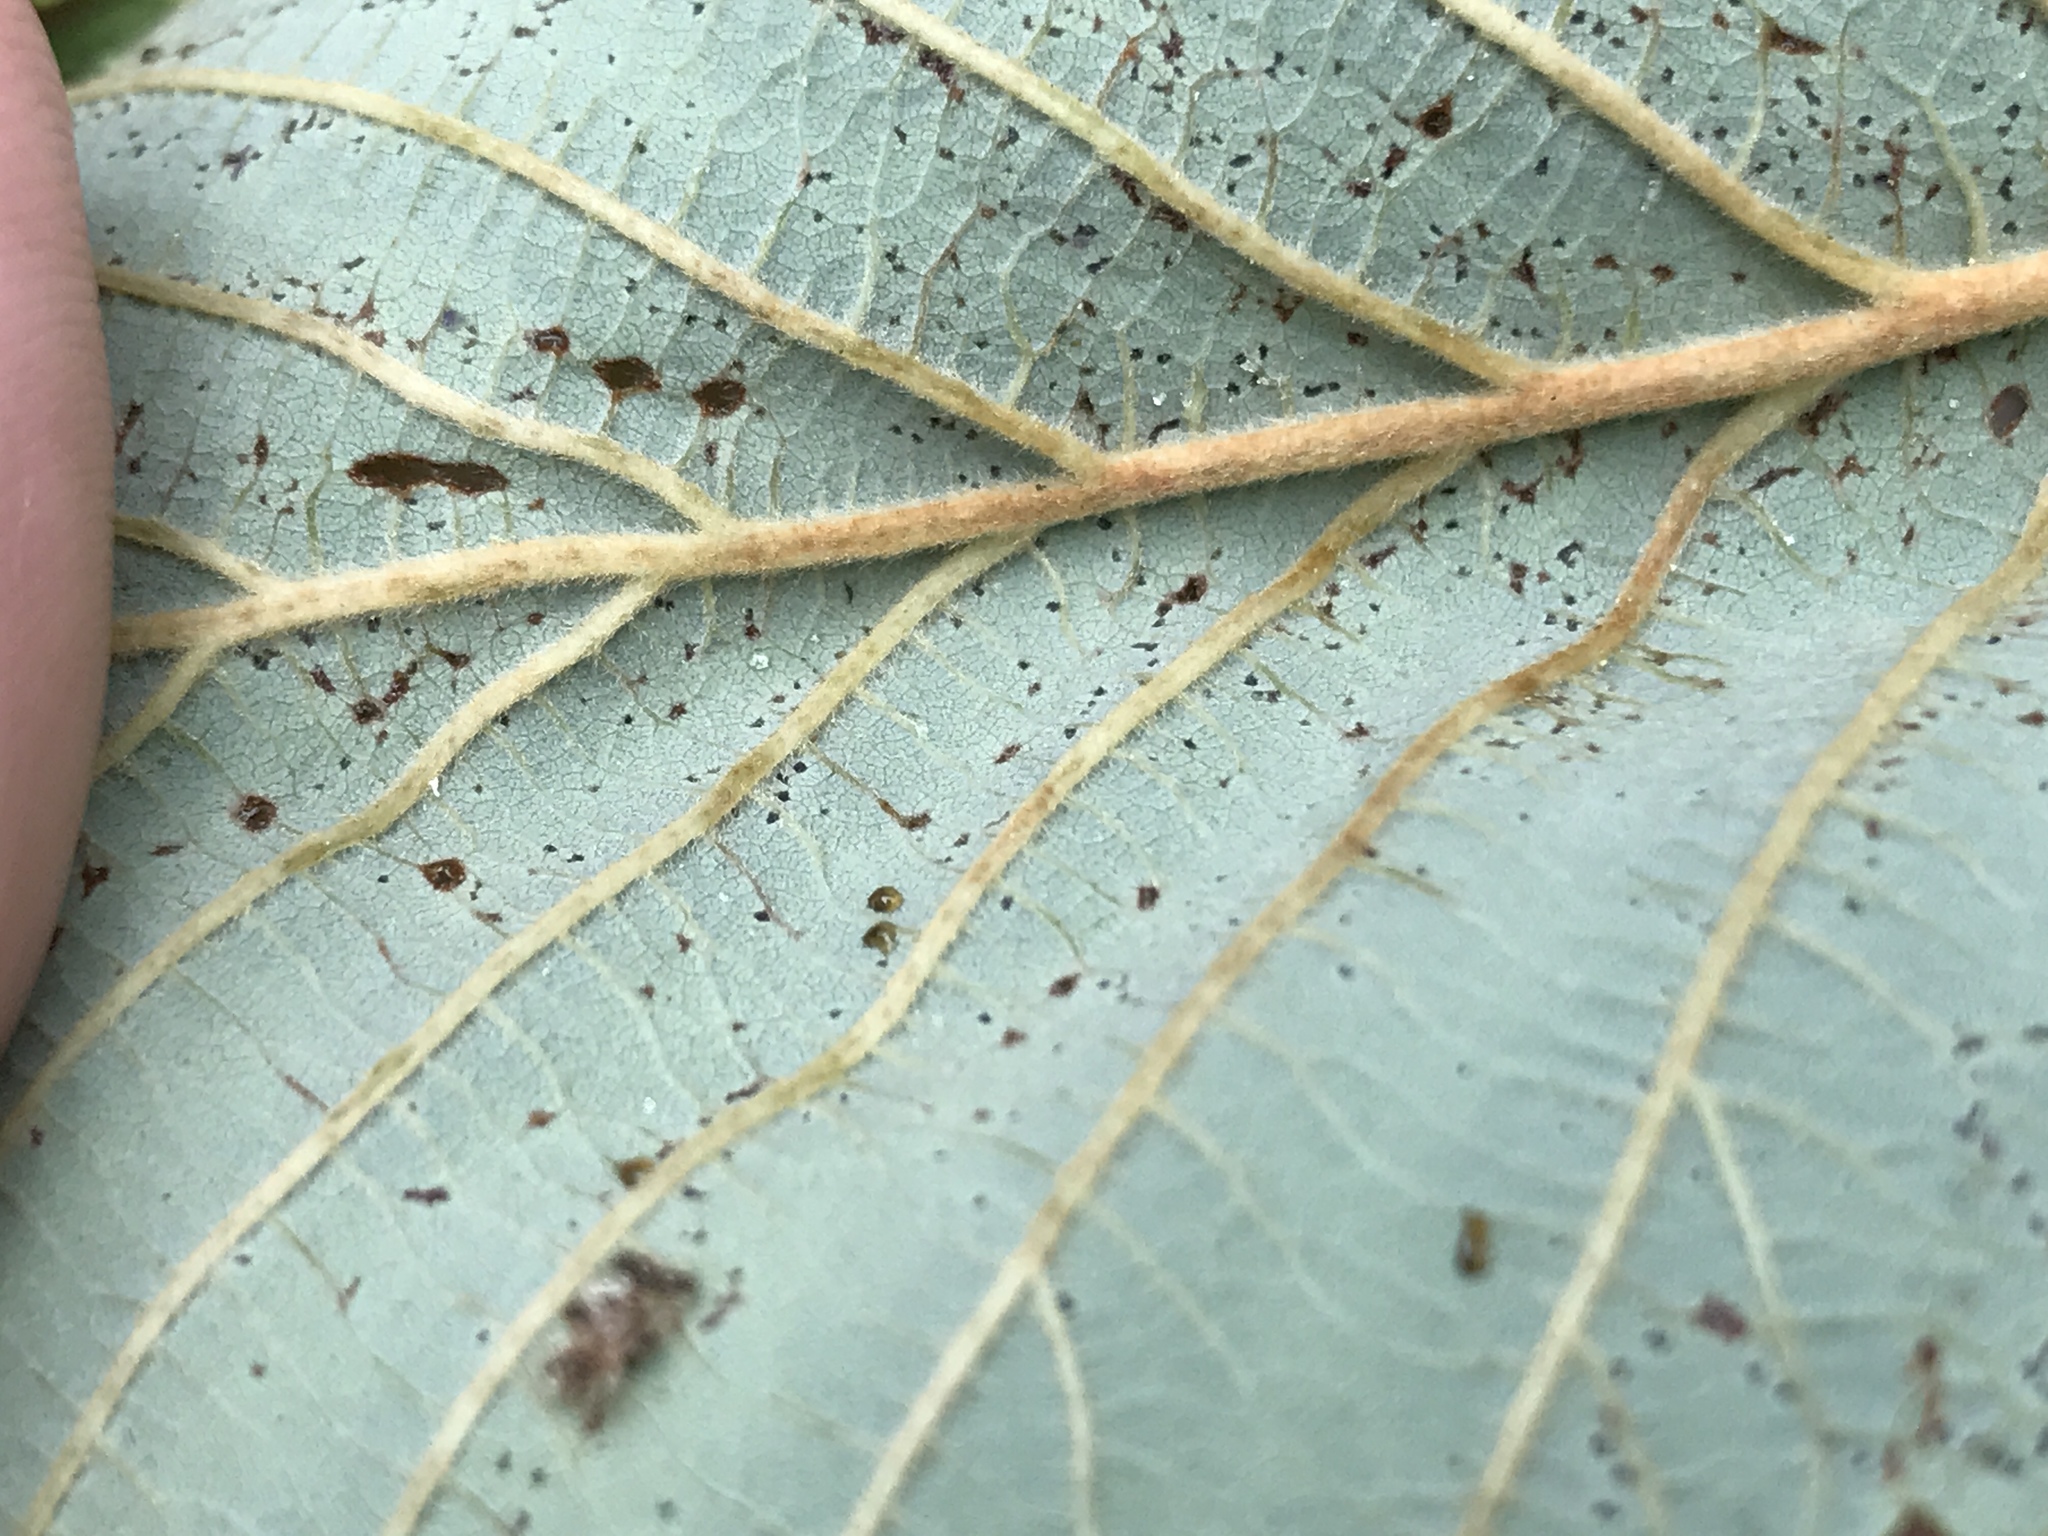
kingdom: Plantae
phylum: Tracheophyta
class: Magnoliopsida
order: Fagales
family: Betulaceae
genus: Alnus
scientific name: Alnus incana
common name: Grey alder
